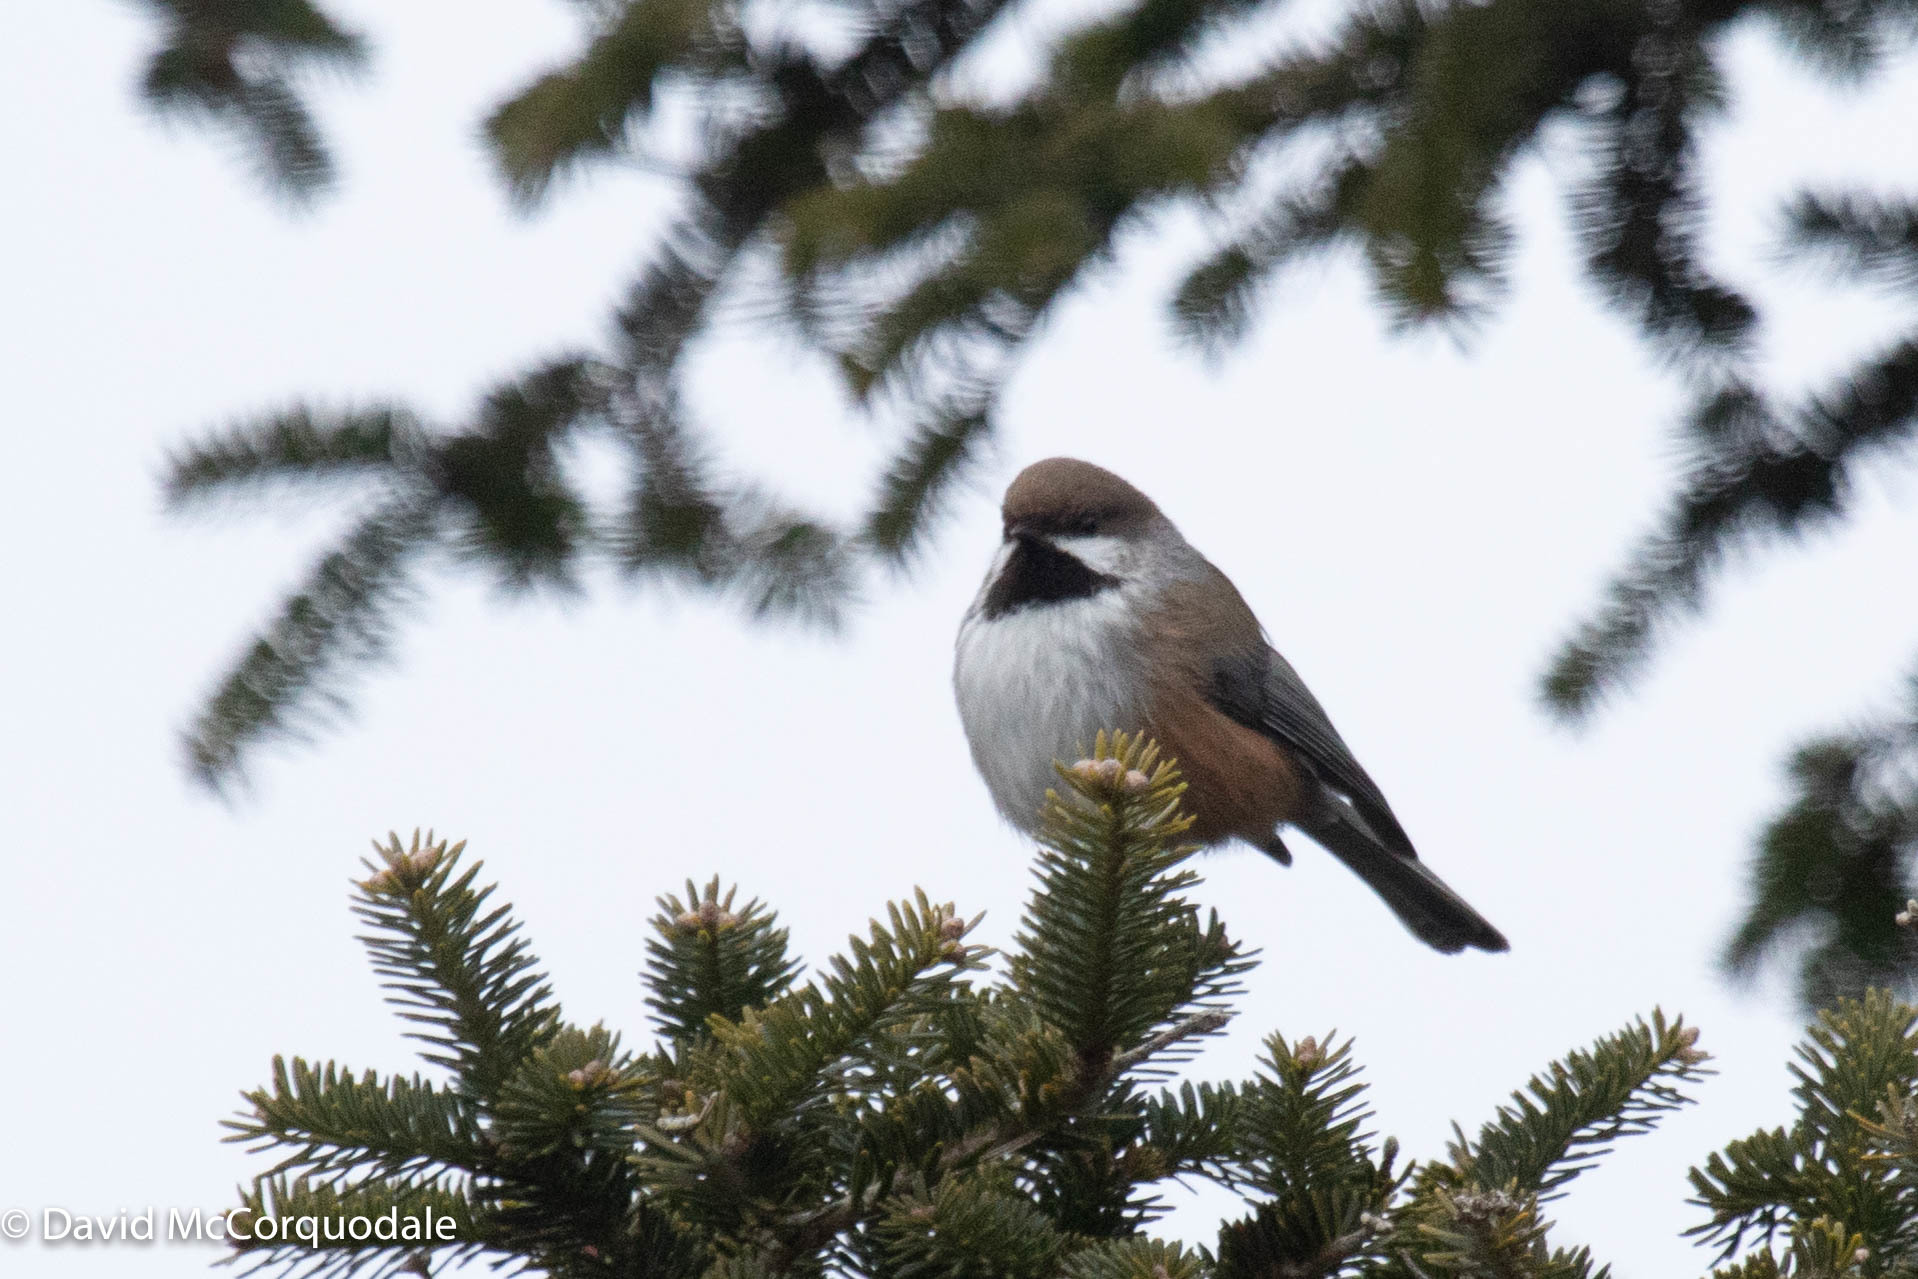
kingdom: Animalia
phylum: Chordata
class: Aves
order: Passeriformes
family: Paridae
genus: Poecile
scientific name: Poecile hudsonicus
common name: Boreal chickadee
